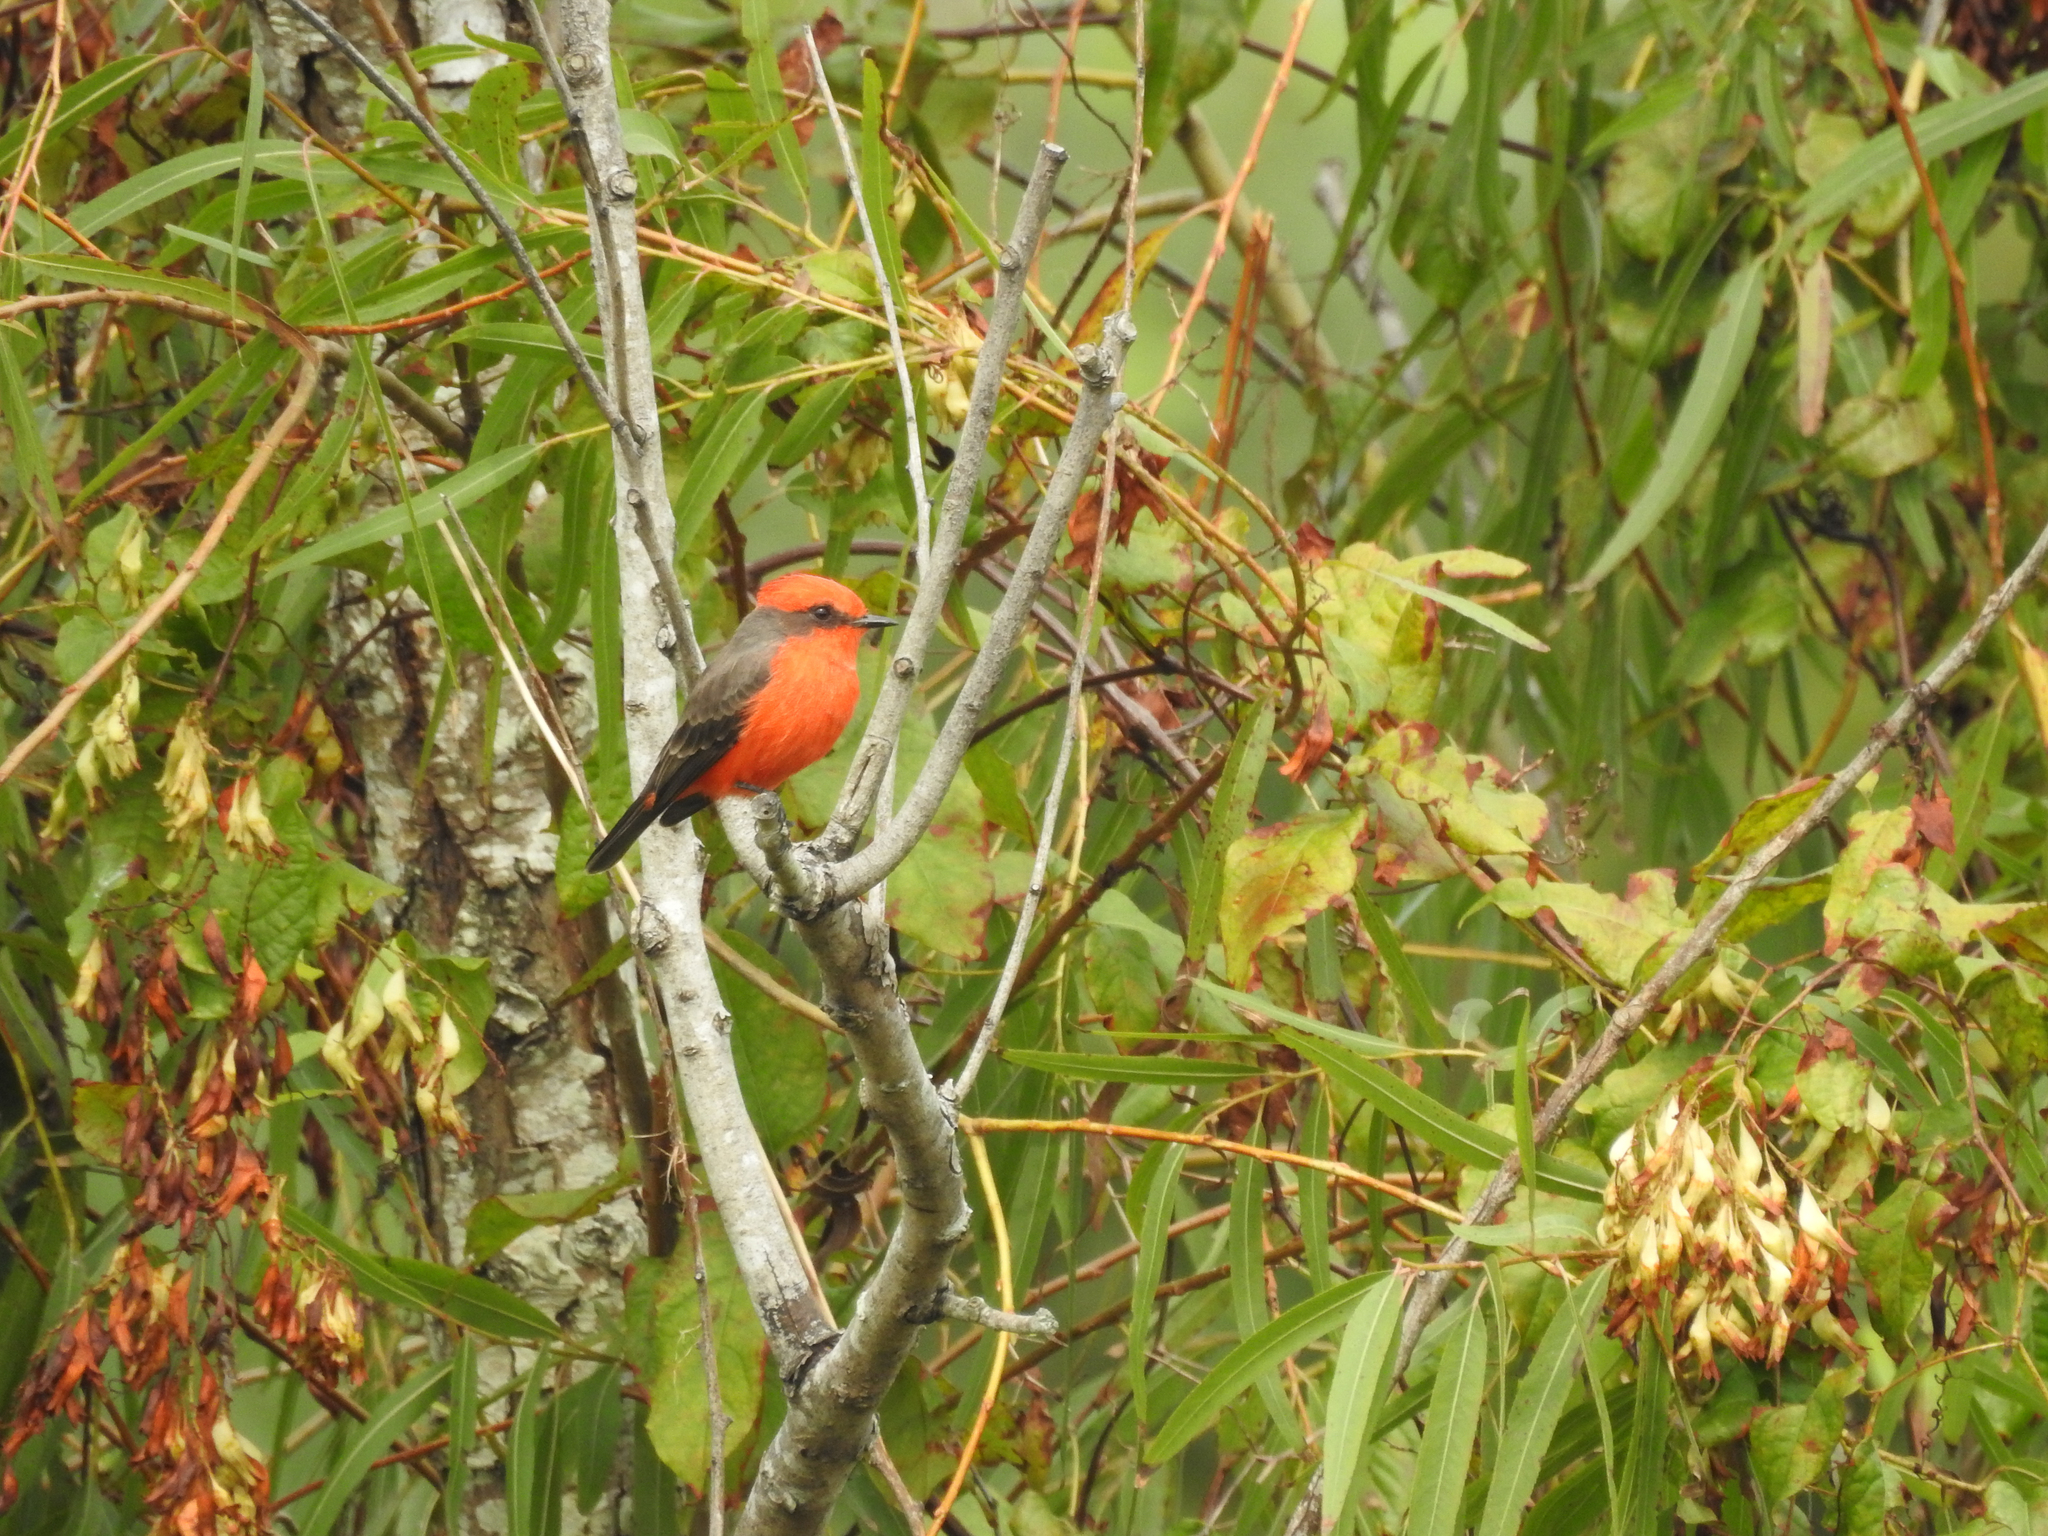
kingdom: Animalia
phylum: Chordata
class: Aves
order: Passeriformes
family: Tyrannidae
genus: Pyrocephalus
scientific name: Pyrocephalus rubinus
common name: Vermilion flycatcher
